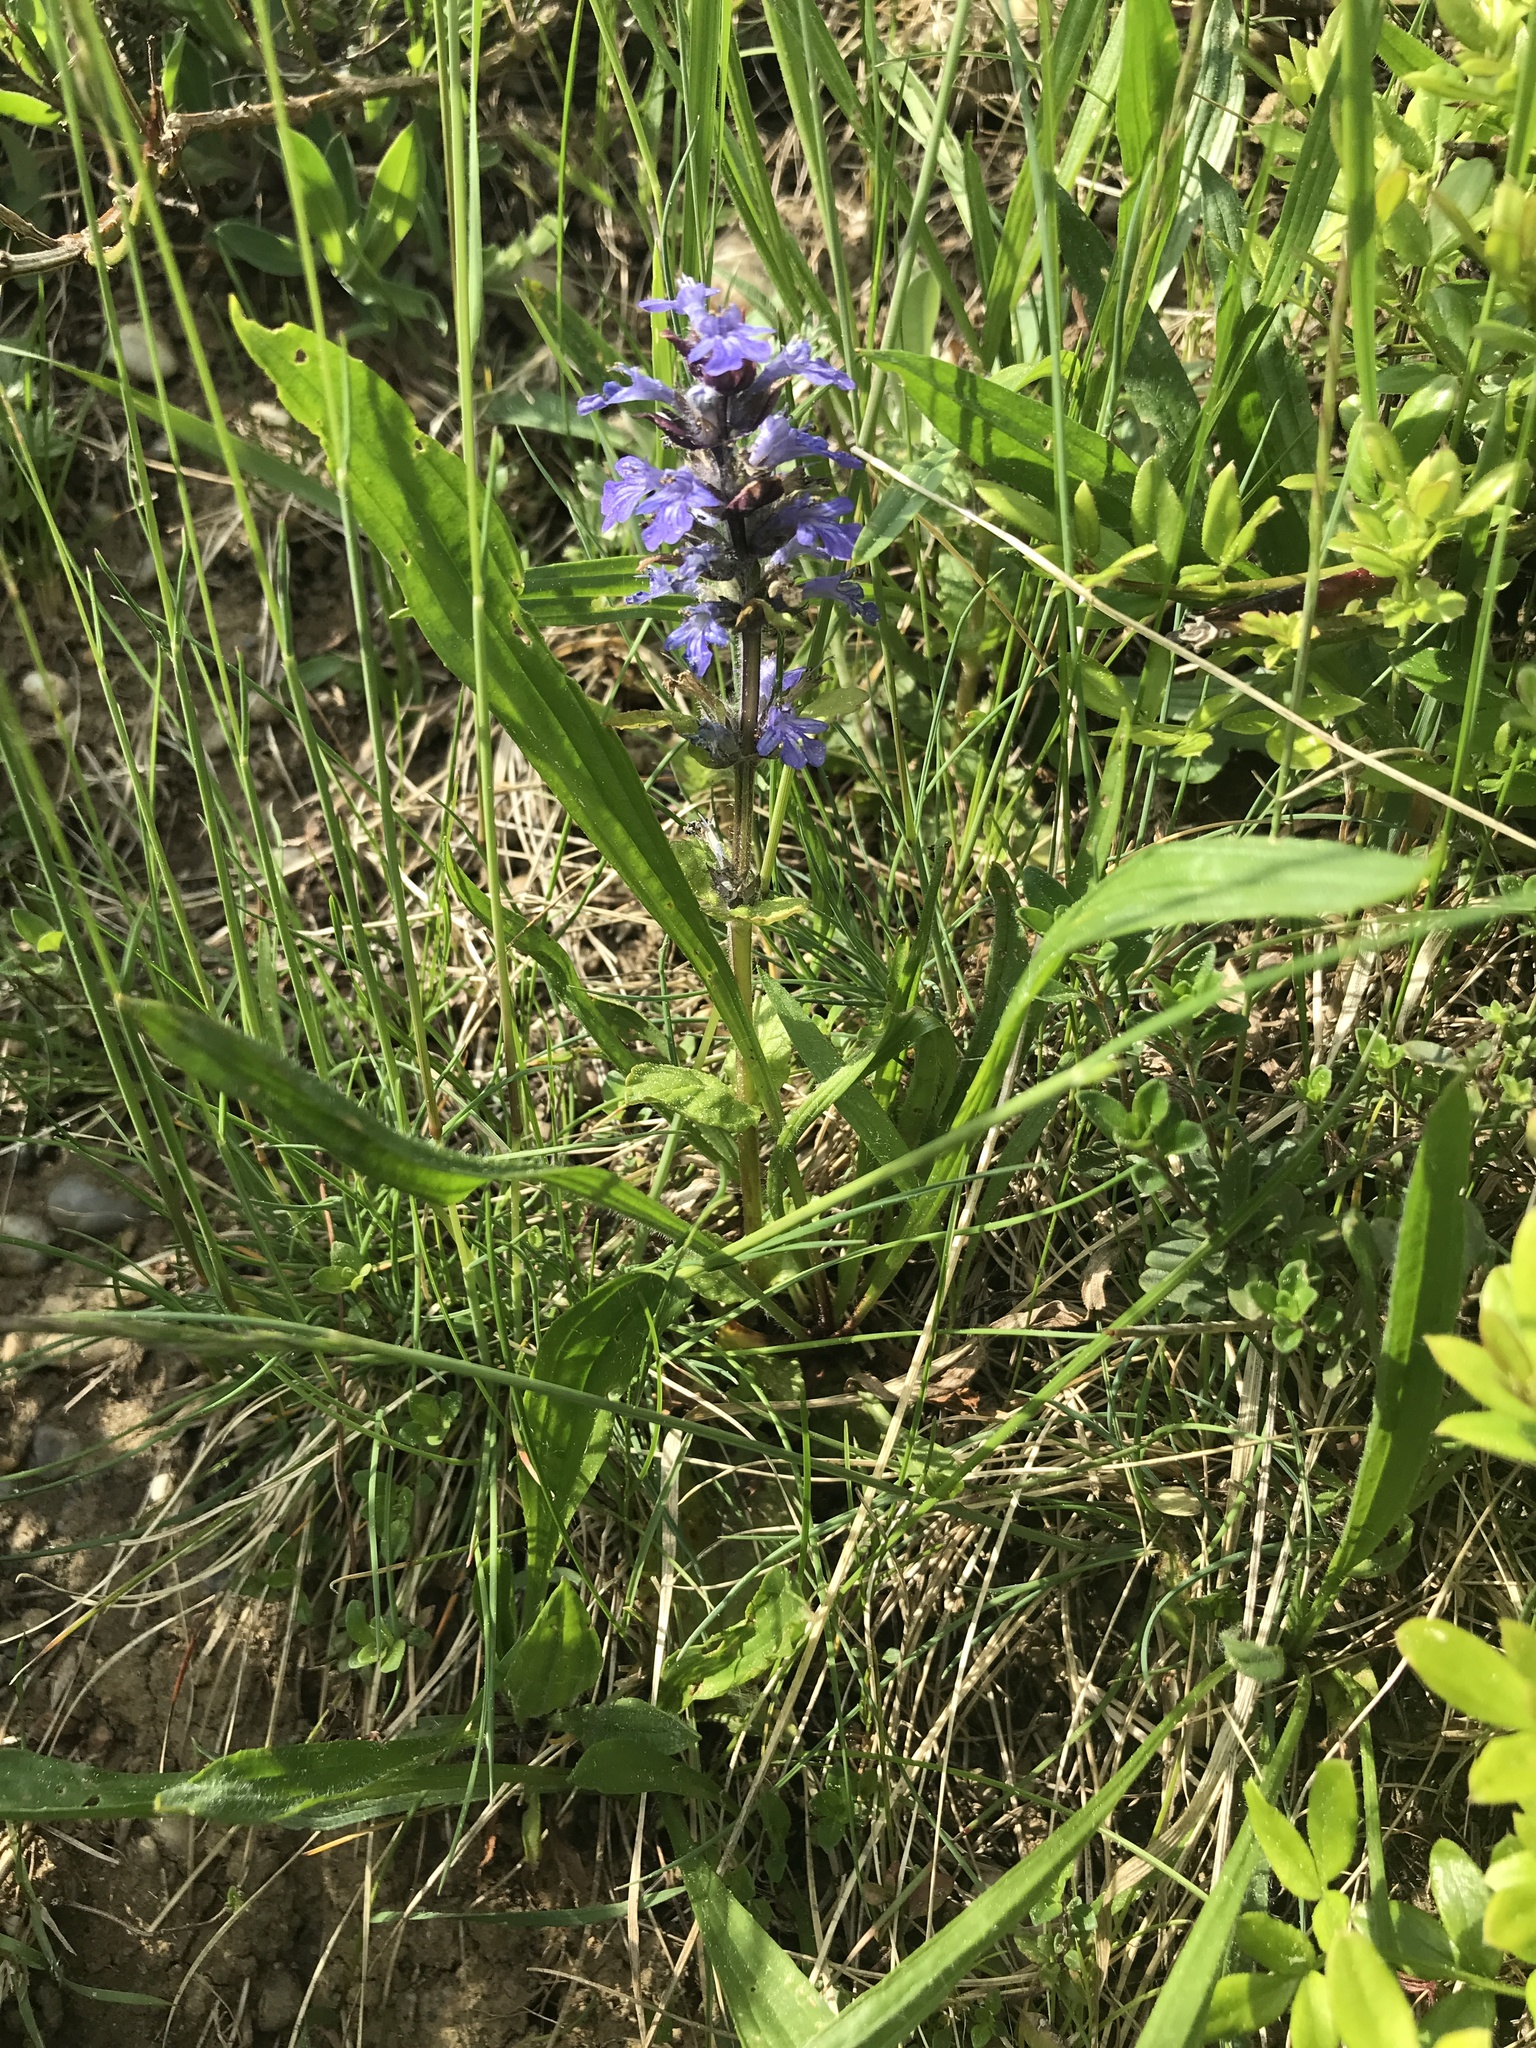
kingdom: Plantae
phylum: Tracheophyta
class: Magnoliopsida
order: Lamiales
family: Lamiaceae
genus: Ajuga
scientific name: Ajuga reptans
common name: Bugle
